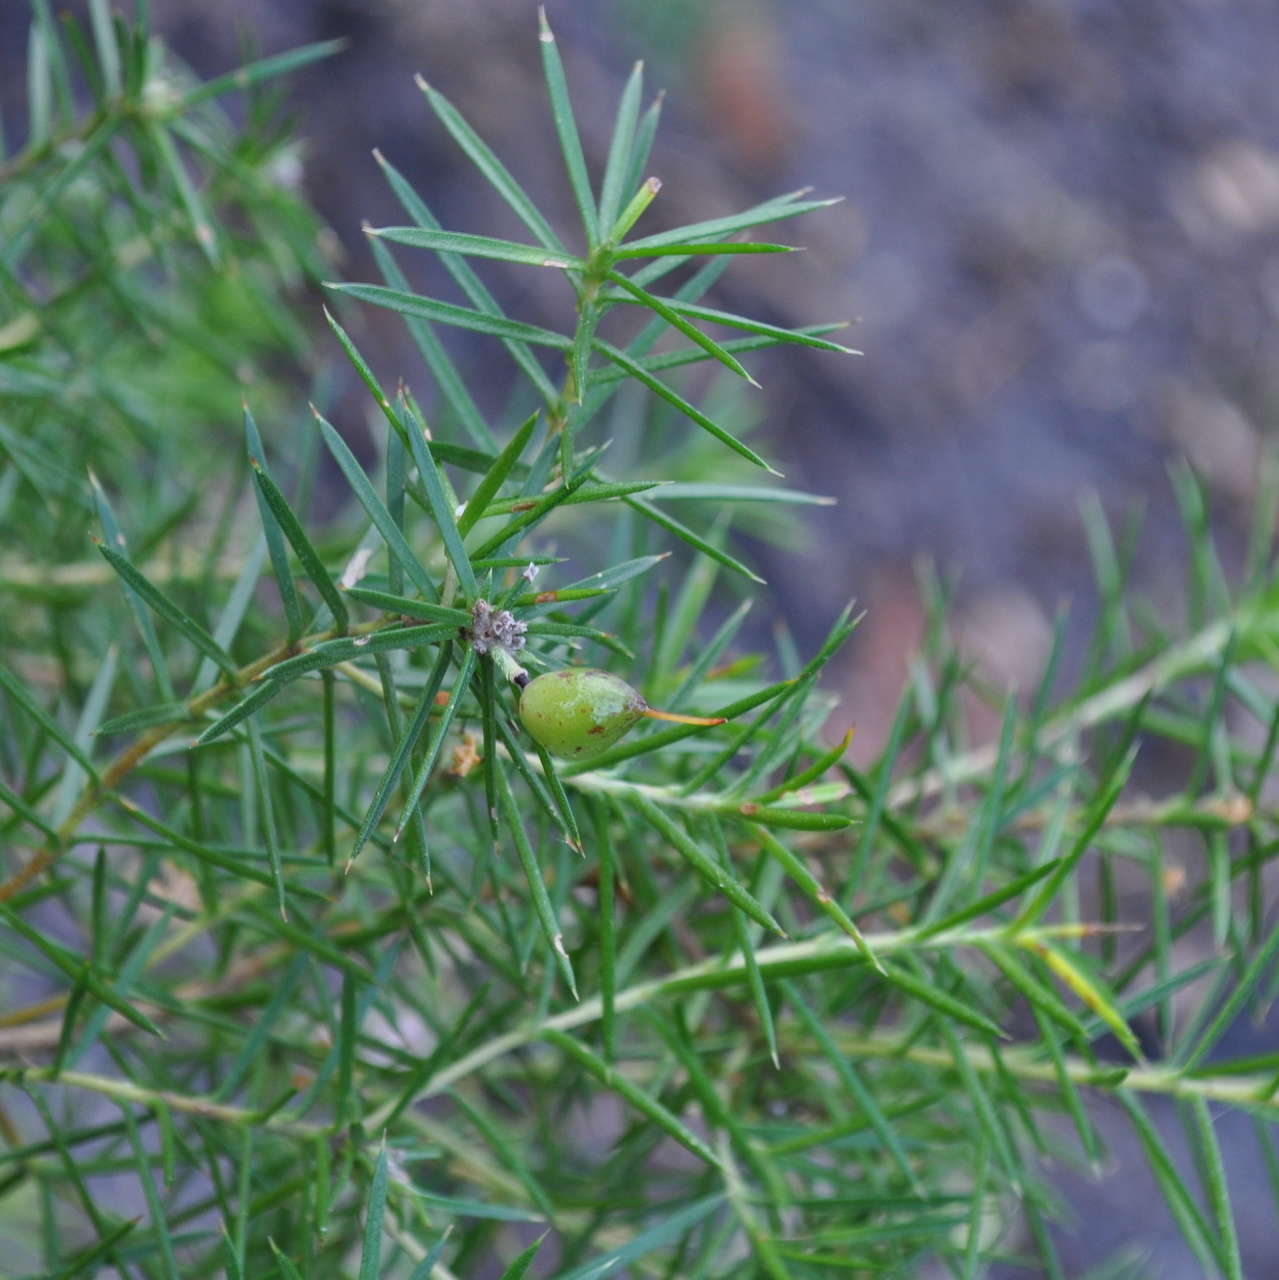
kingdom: Plantae
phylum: Tracheophyta
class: Magnoliopsida
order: Proteales
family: Proteaceae
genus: Persoonia
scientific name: Persoonia juniperina
